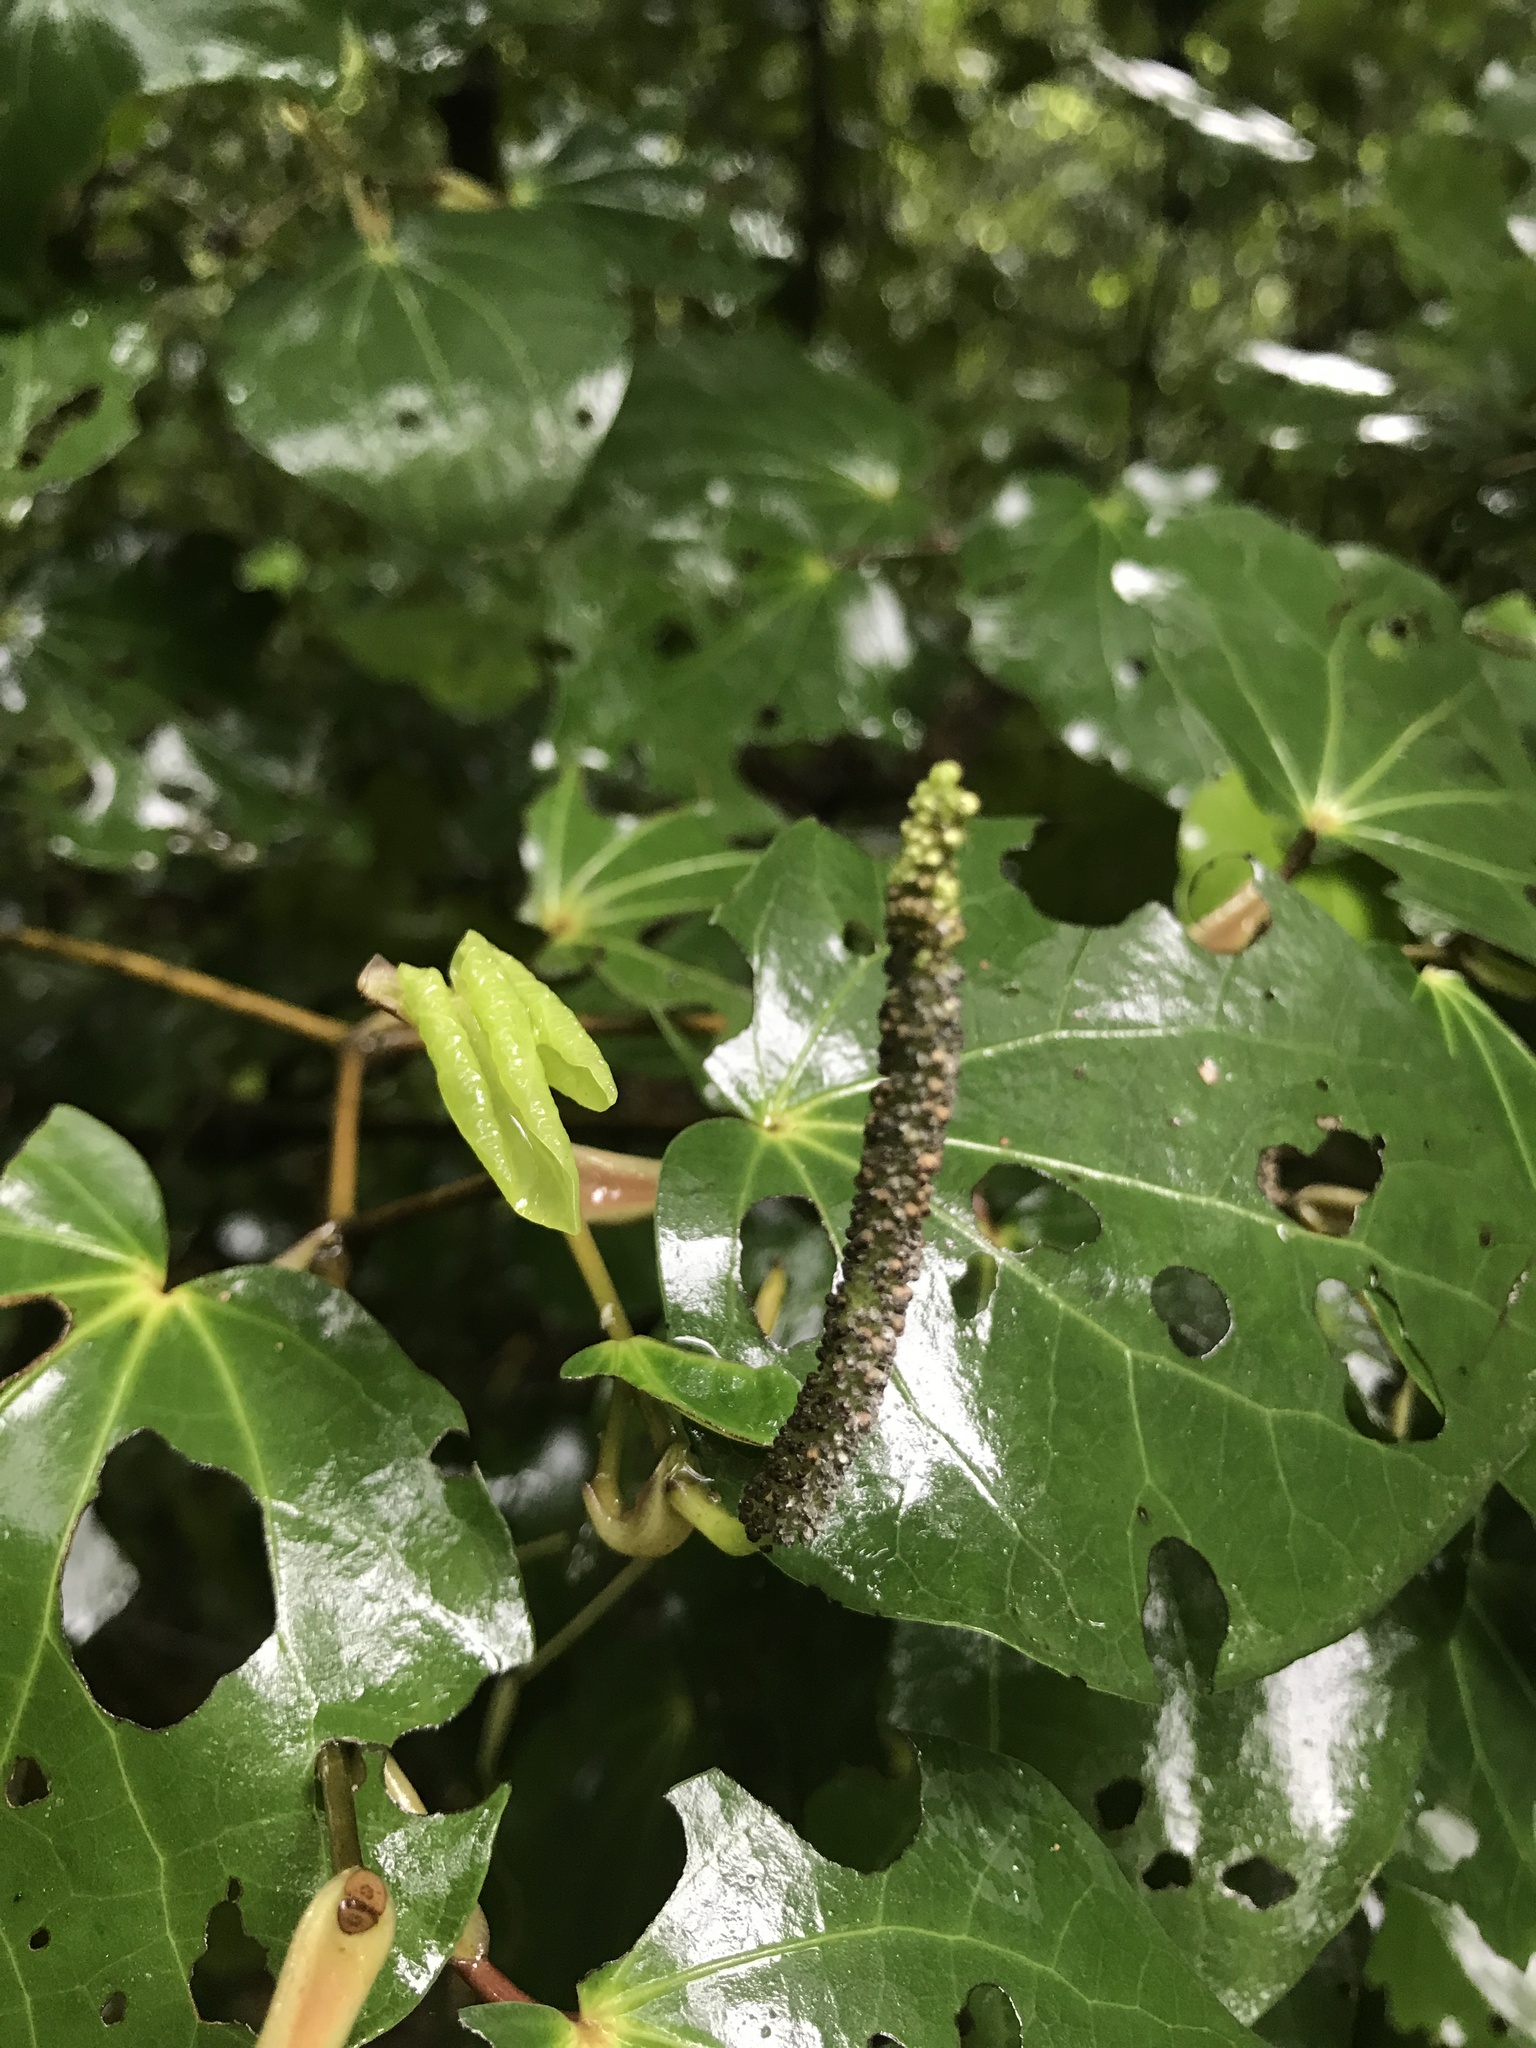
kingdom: Plantae
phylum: Tracheophyta
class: Magnoliopsida
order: Piperales
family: Piperaceae
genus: Macropiper
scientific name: Macropiper excelsum
